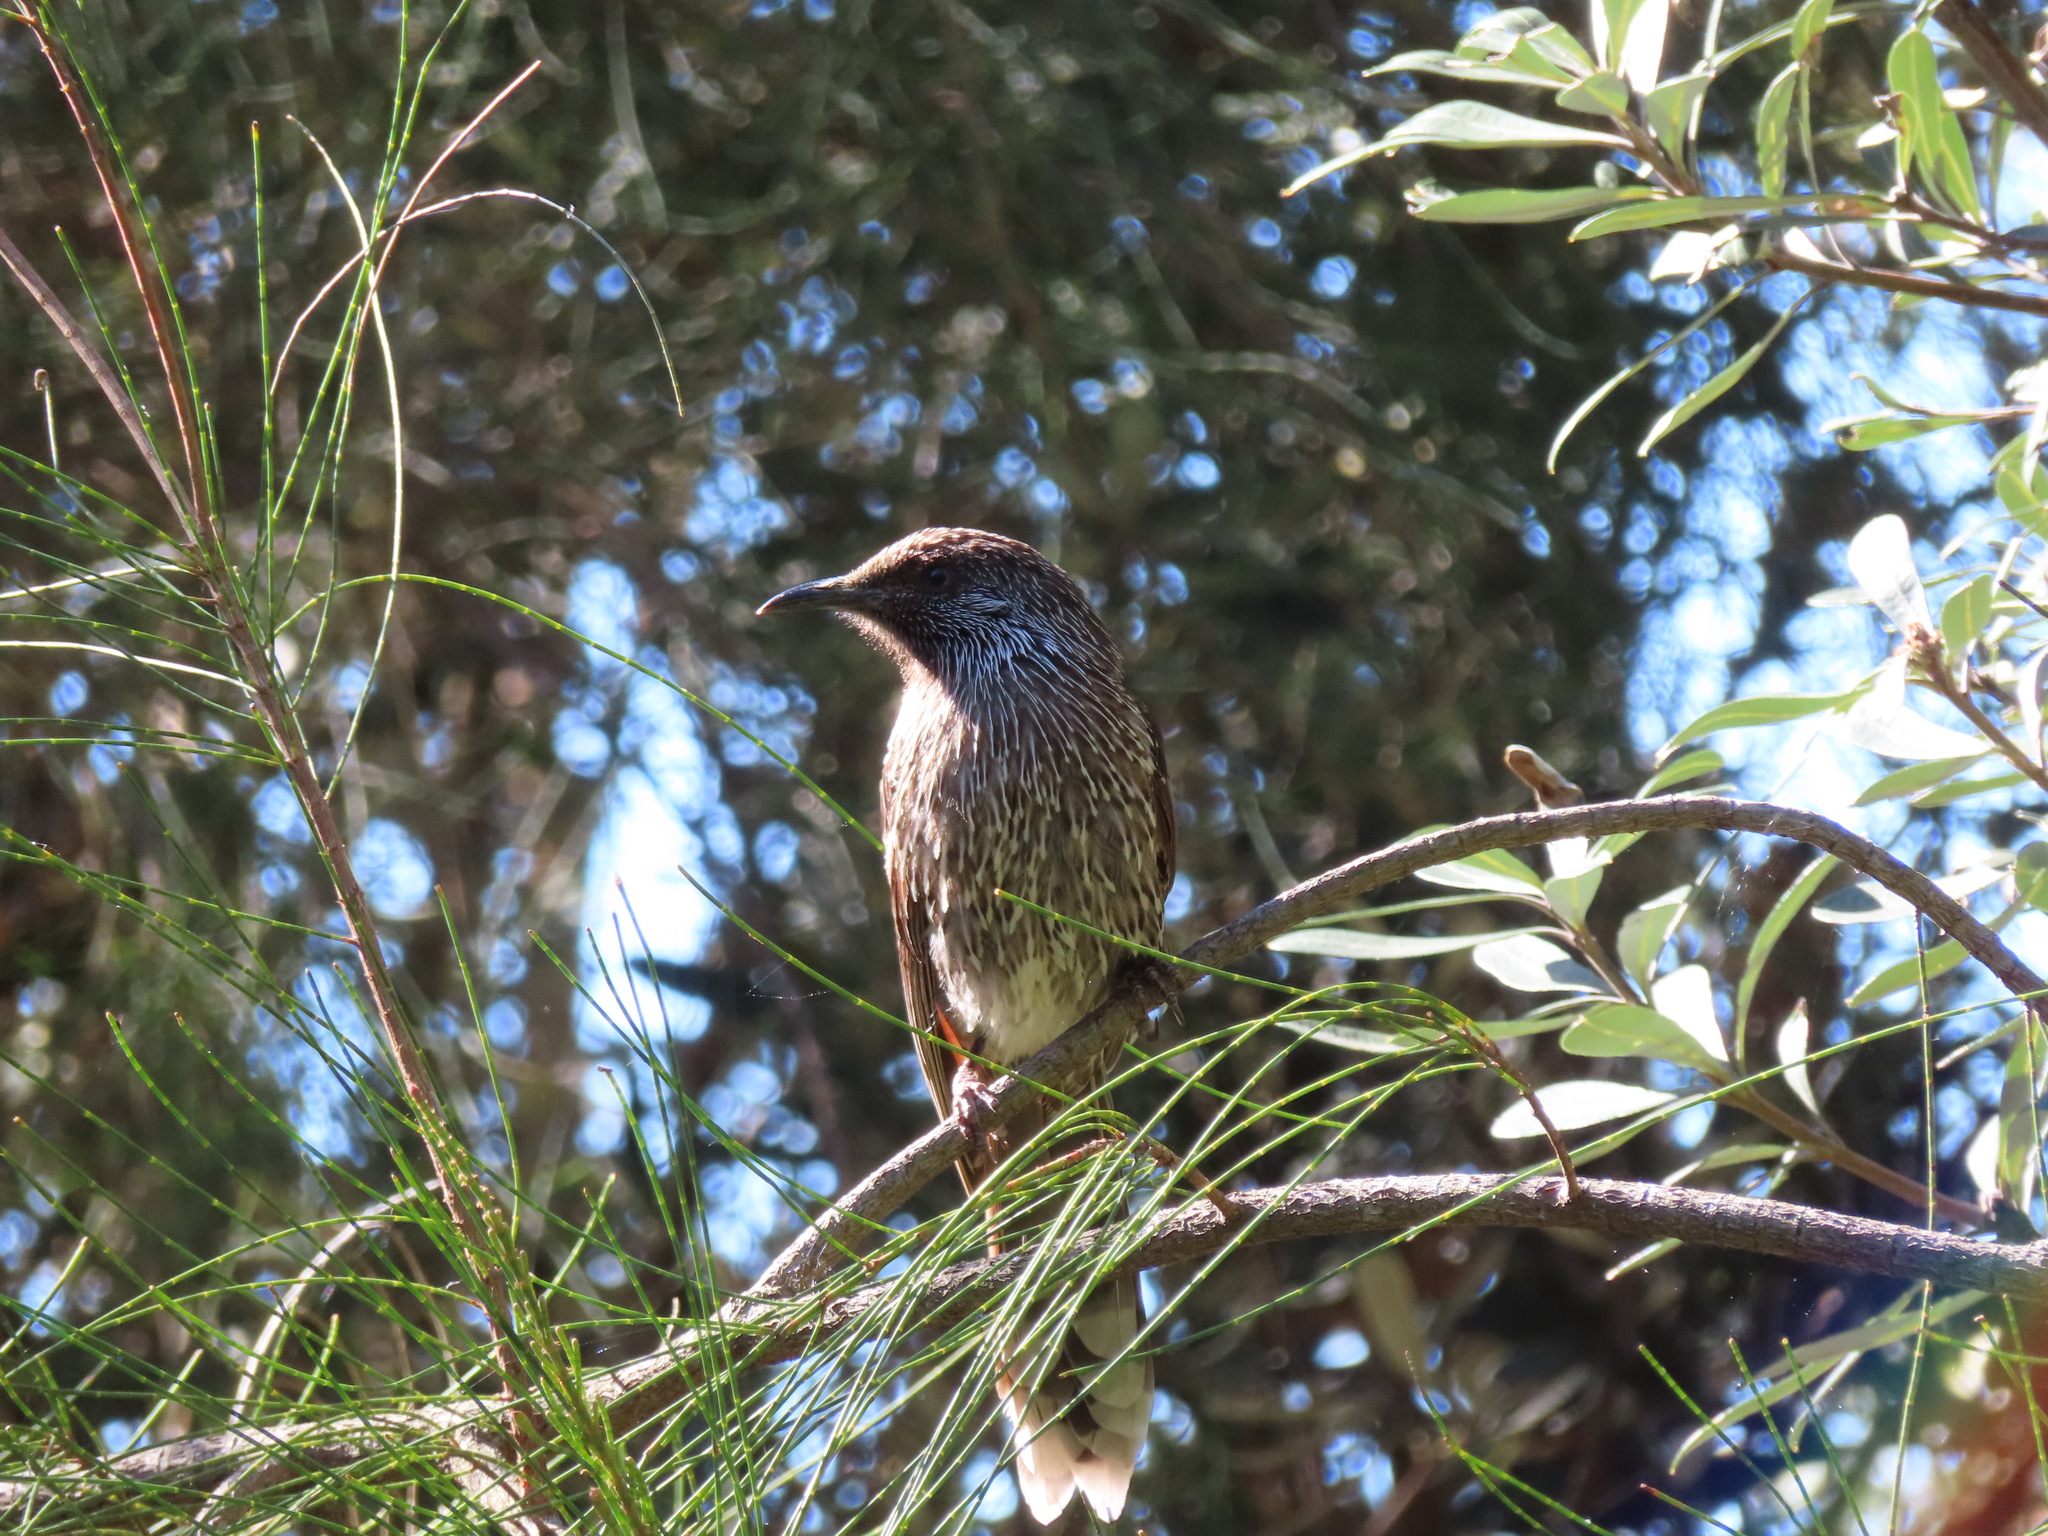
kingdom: Animalia
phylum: Chordata
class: Aves
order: Passeriformes
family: Meliphagidae
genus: Anthochaera
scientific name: Anthochaera chrysoptera
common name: Little wattlebird
